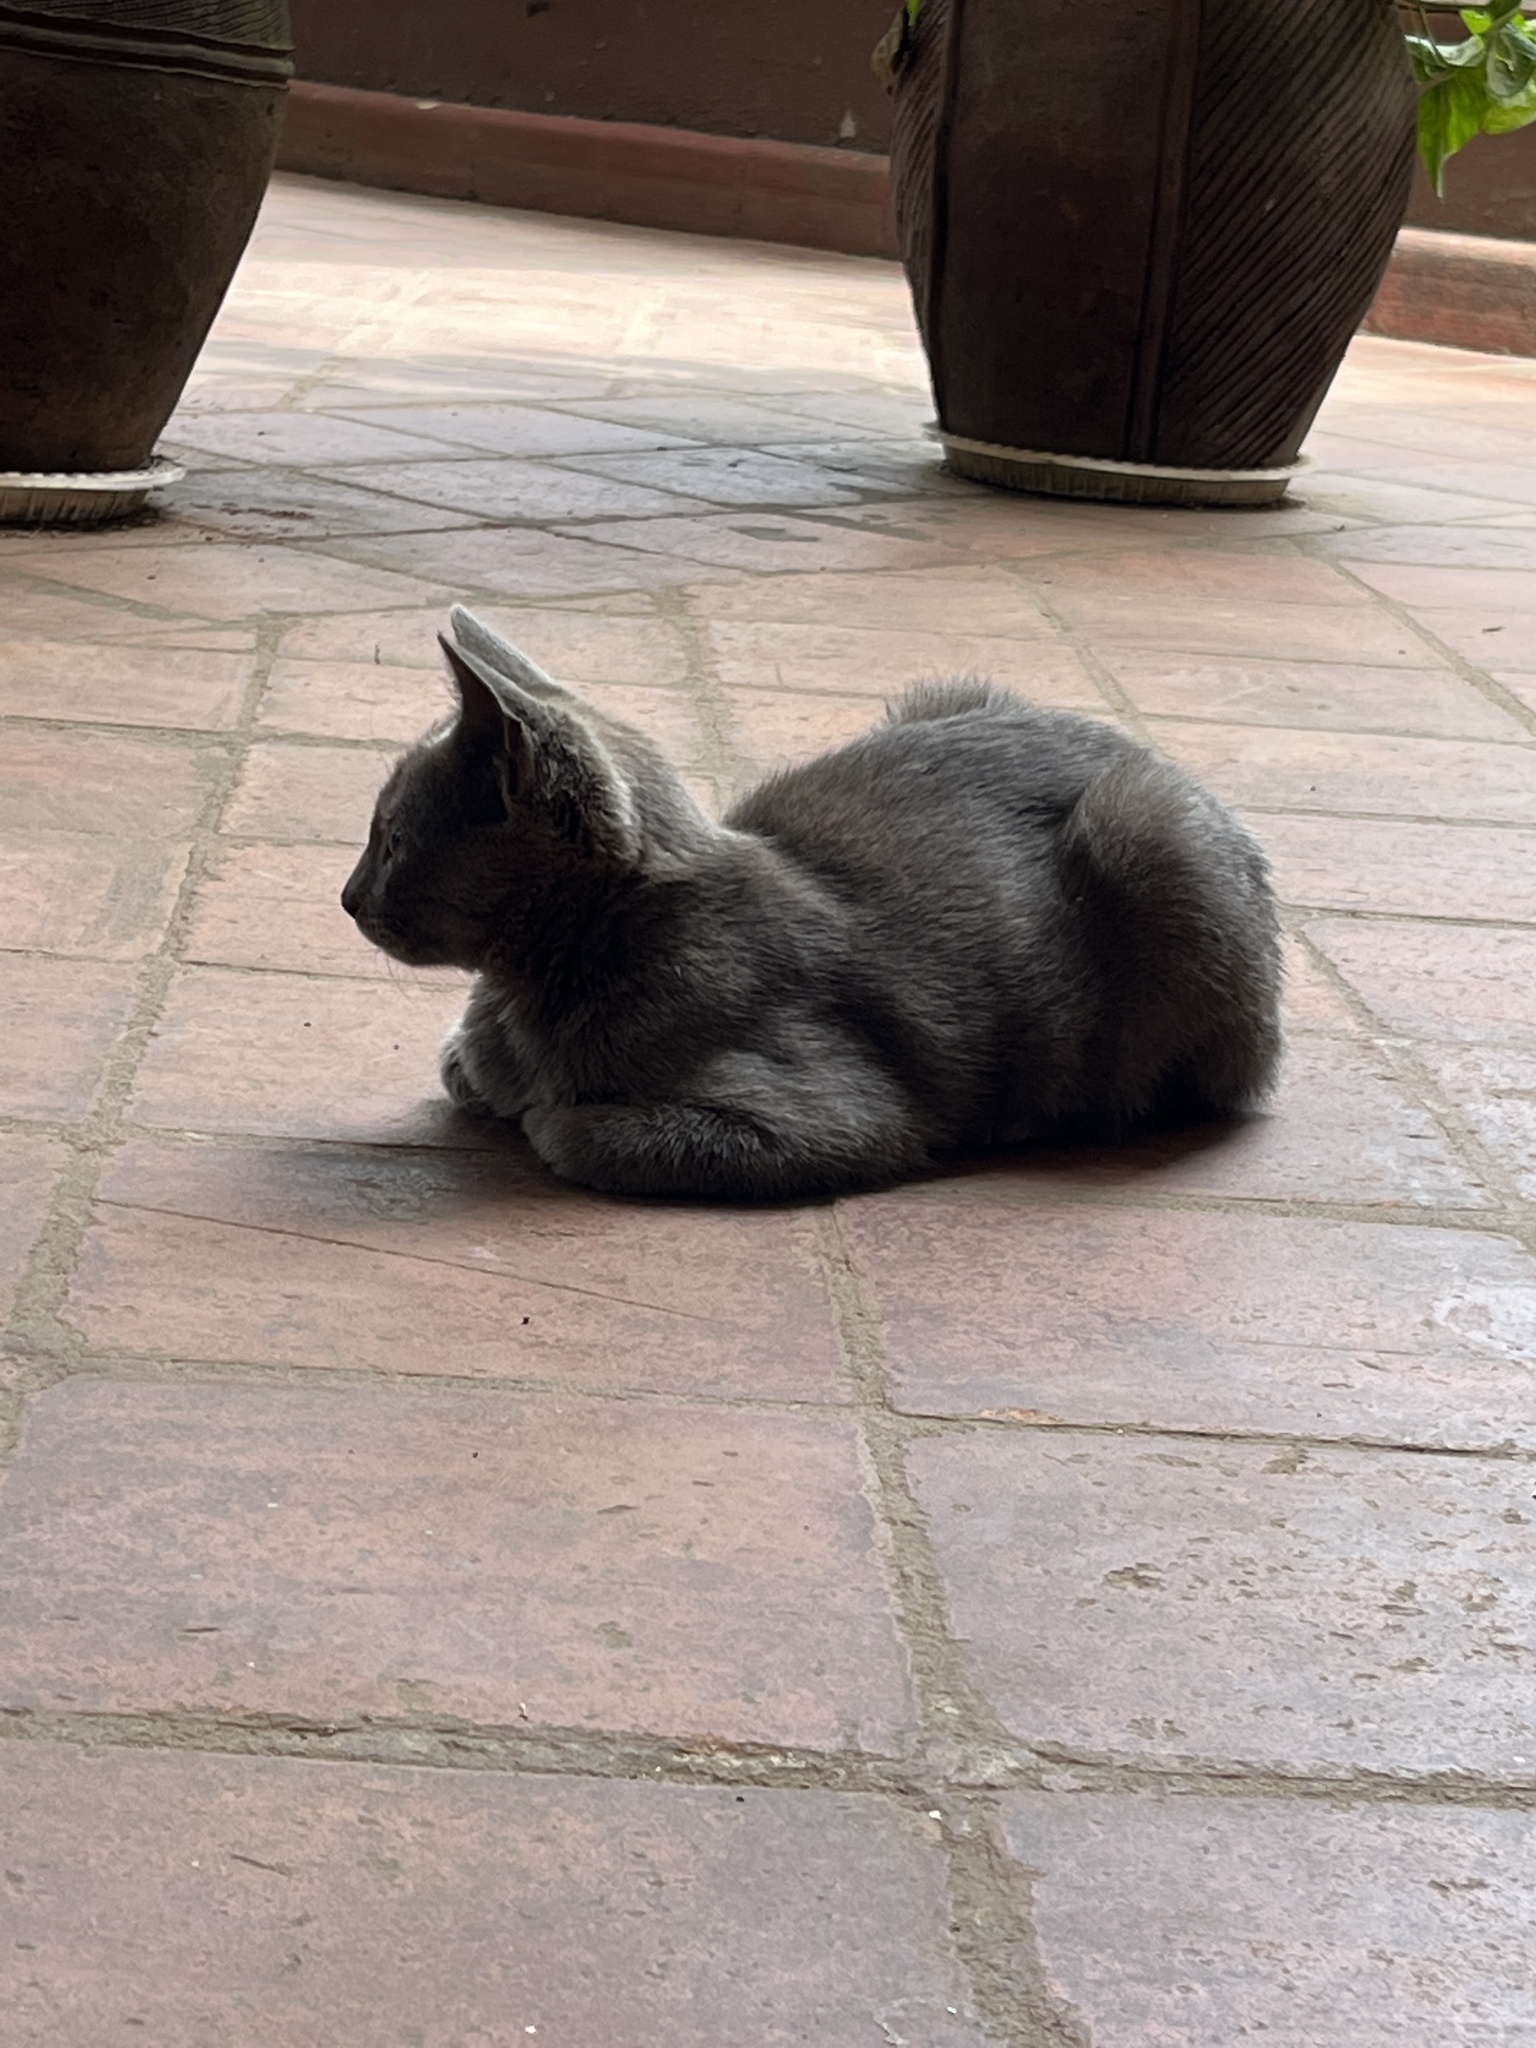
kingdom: Animalia
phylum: Chordata
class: Mammalia
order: Carnivora
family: Felidae
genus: Felis
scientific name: Felis catus
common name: Domestic cat
